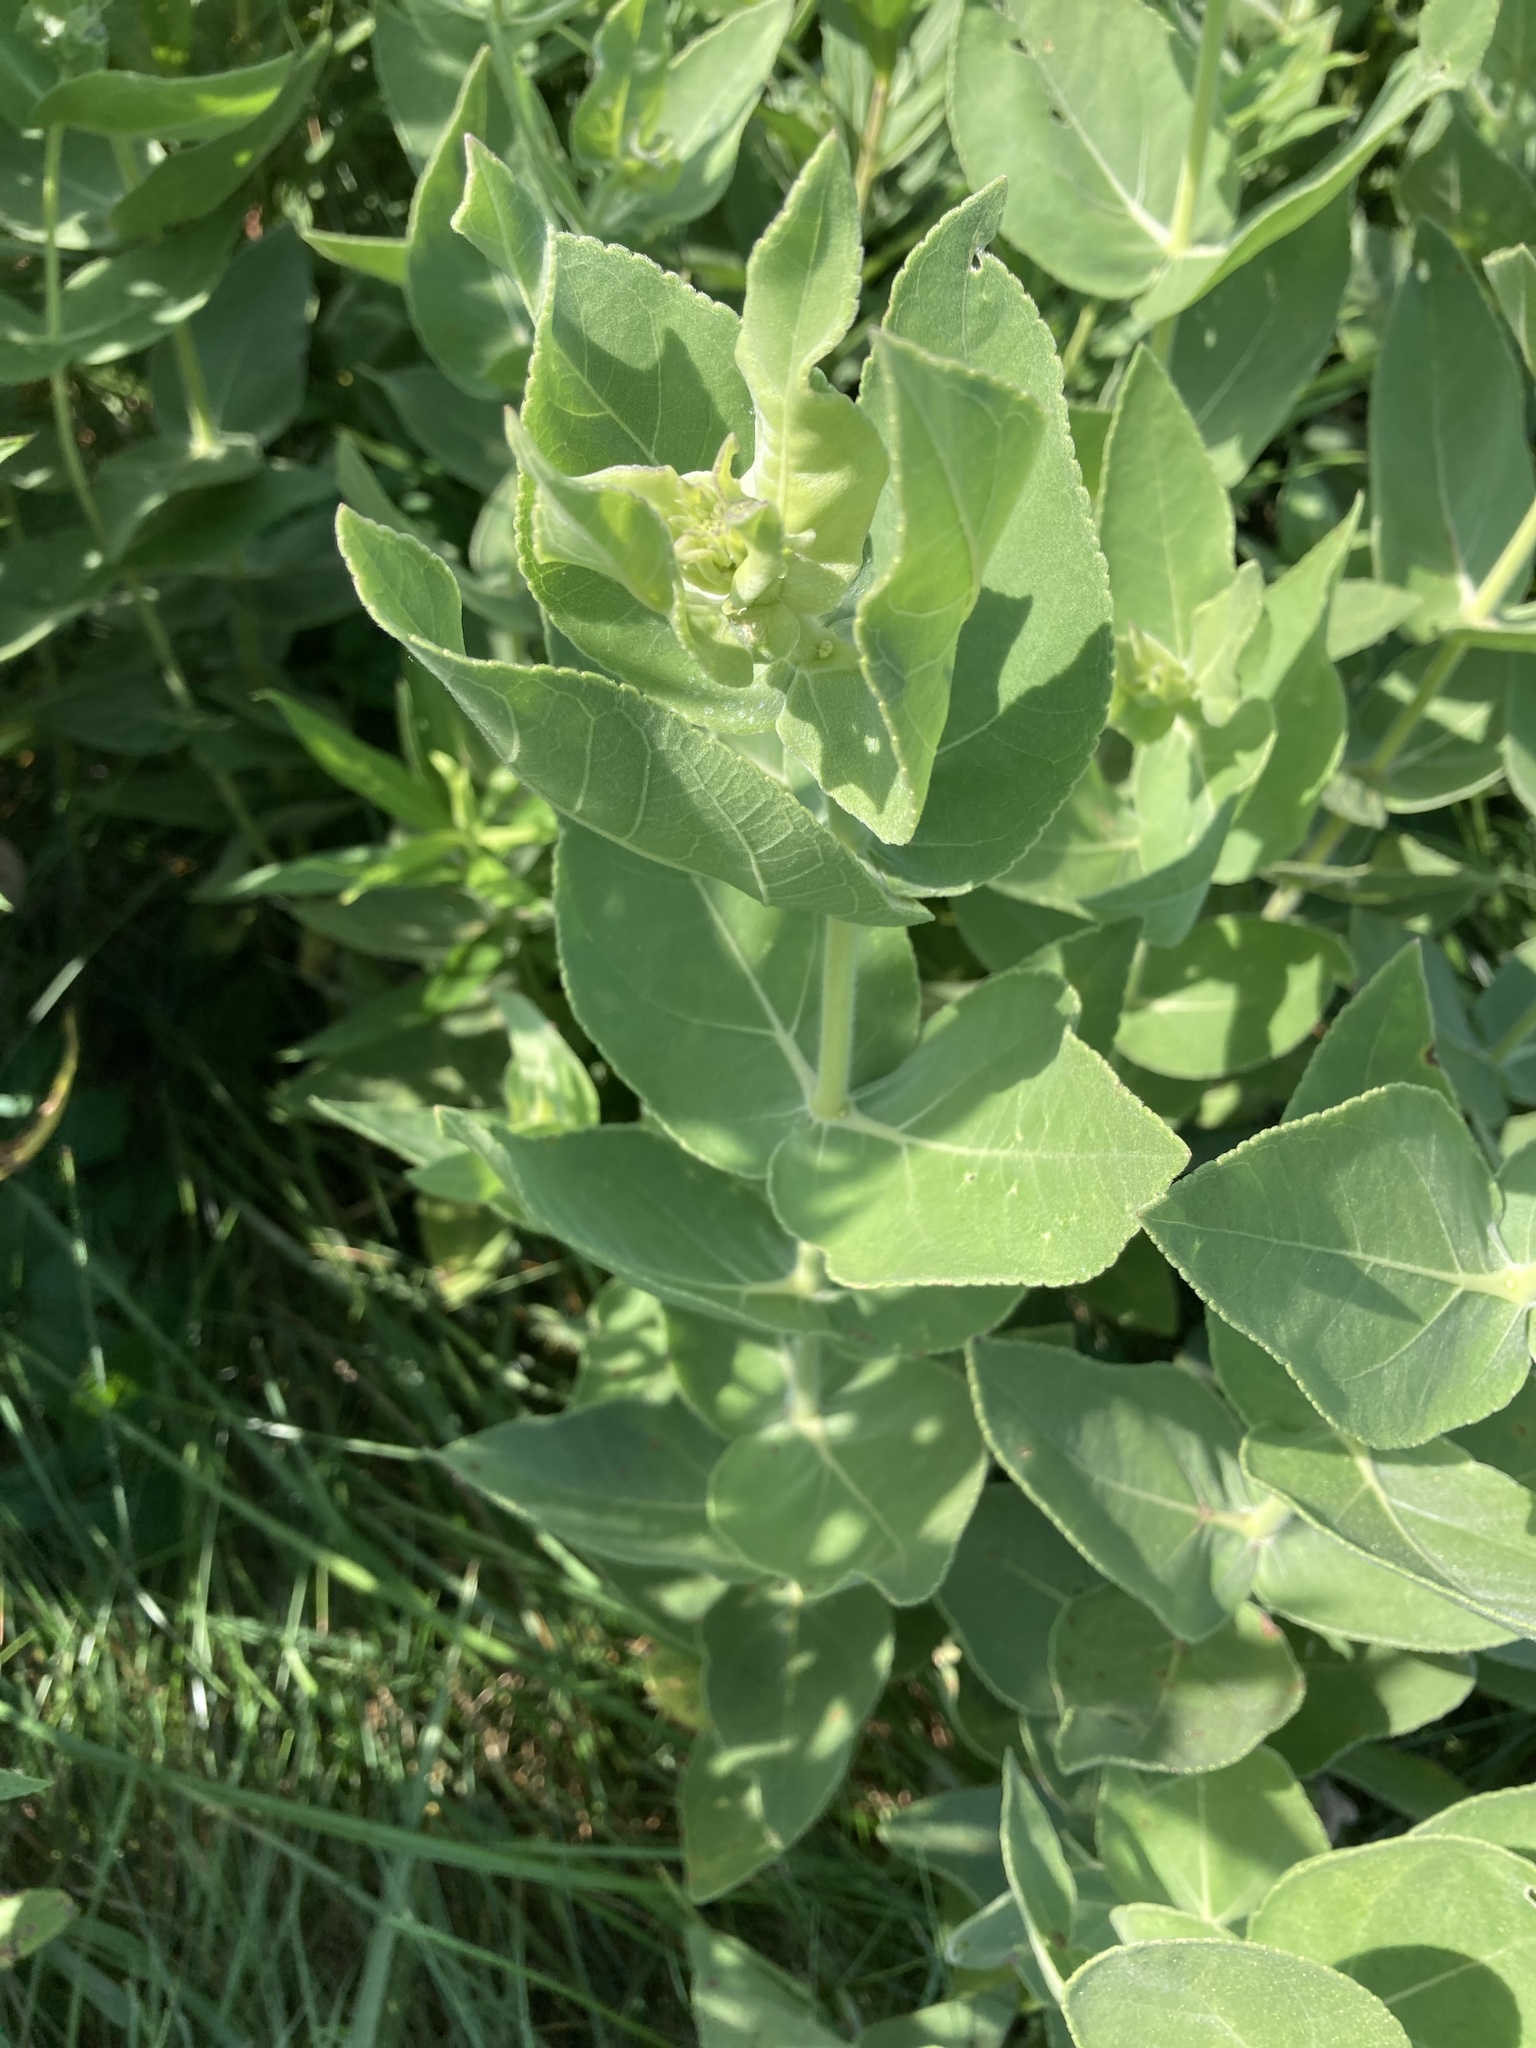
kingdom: Plantae
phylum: Tracheophyta
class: Magnoliopsida
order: Asterales
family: Asteraceae
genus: Helianthus
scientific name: Helianthus mollis
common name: Ashy sunflower
